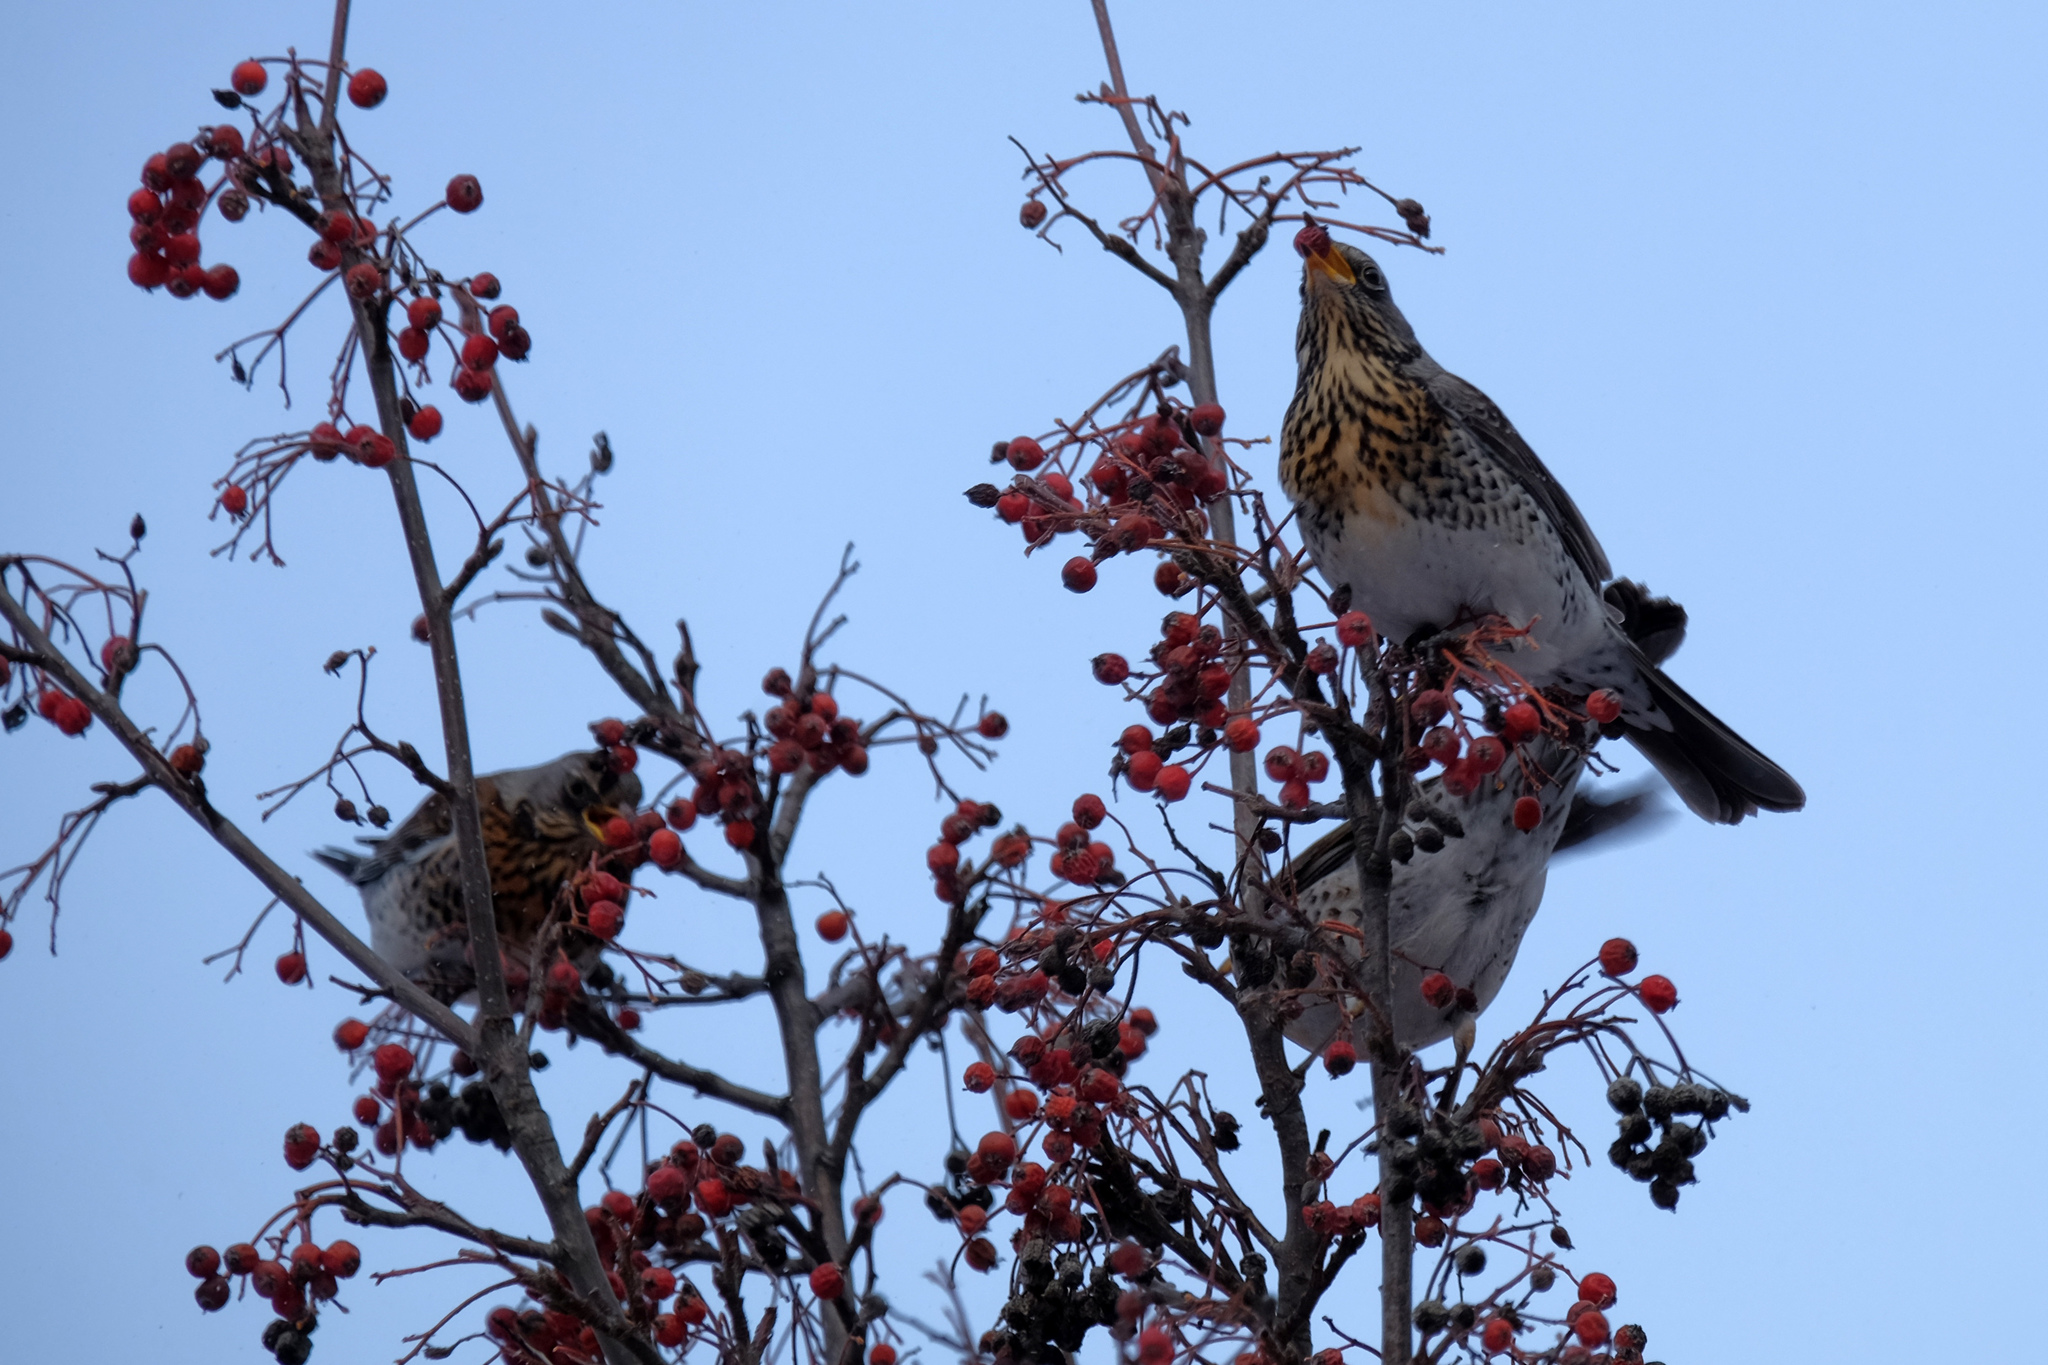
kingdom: Animalia
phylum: Chordata
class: Aves
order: Passeriformes
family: Turdidae
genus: Turdus
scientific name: Turdus pilaris
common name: Fieldfare
